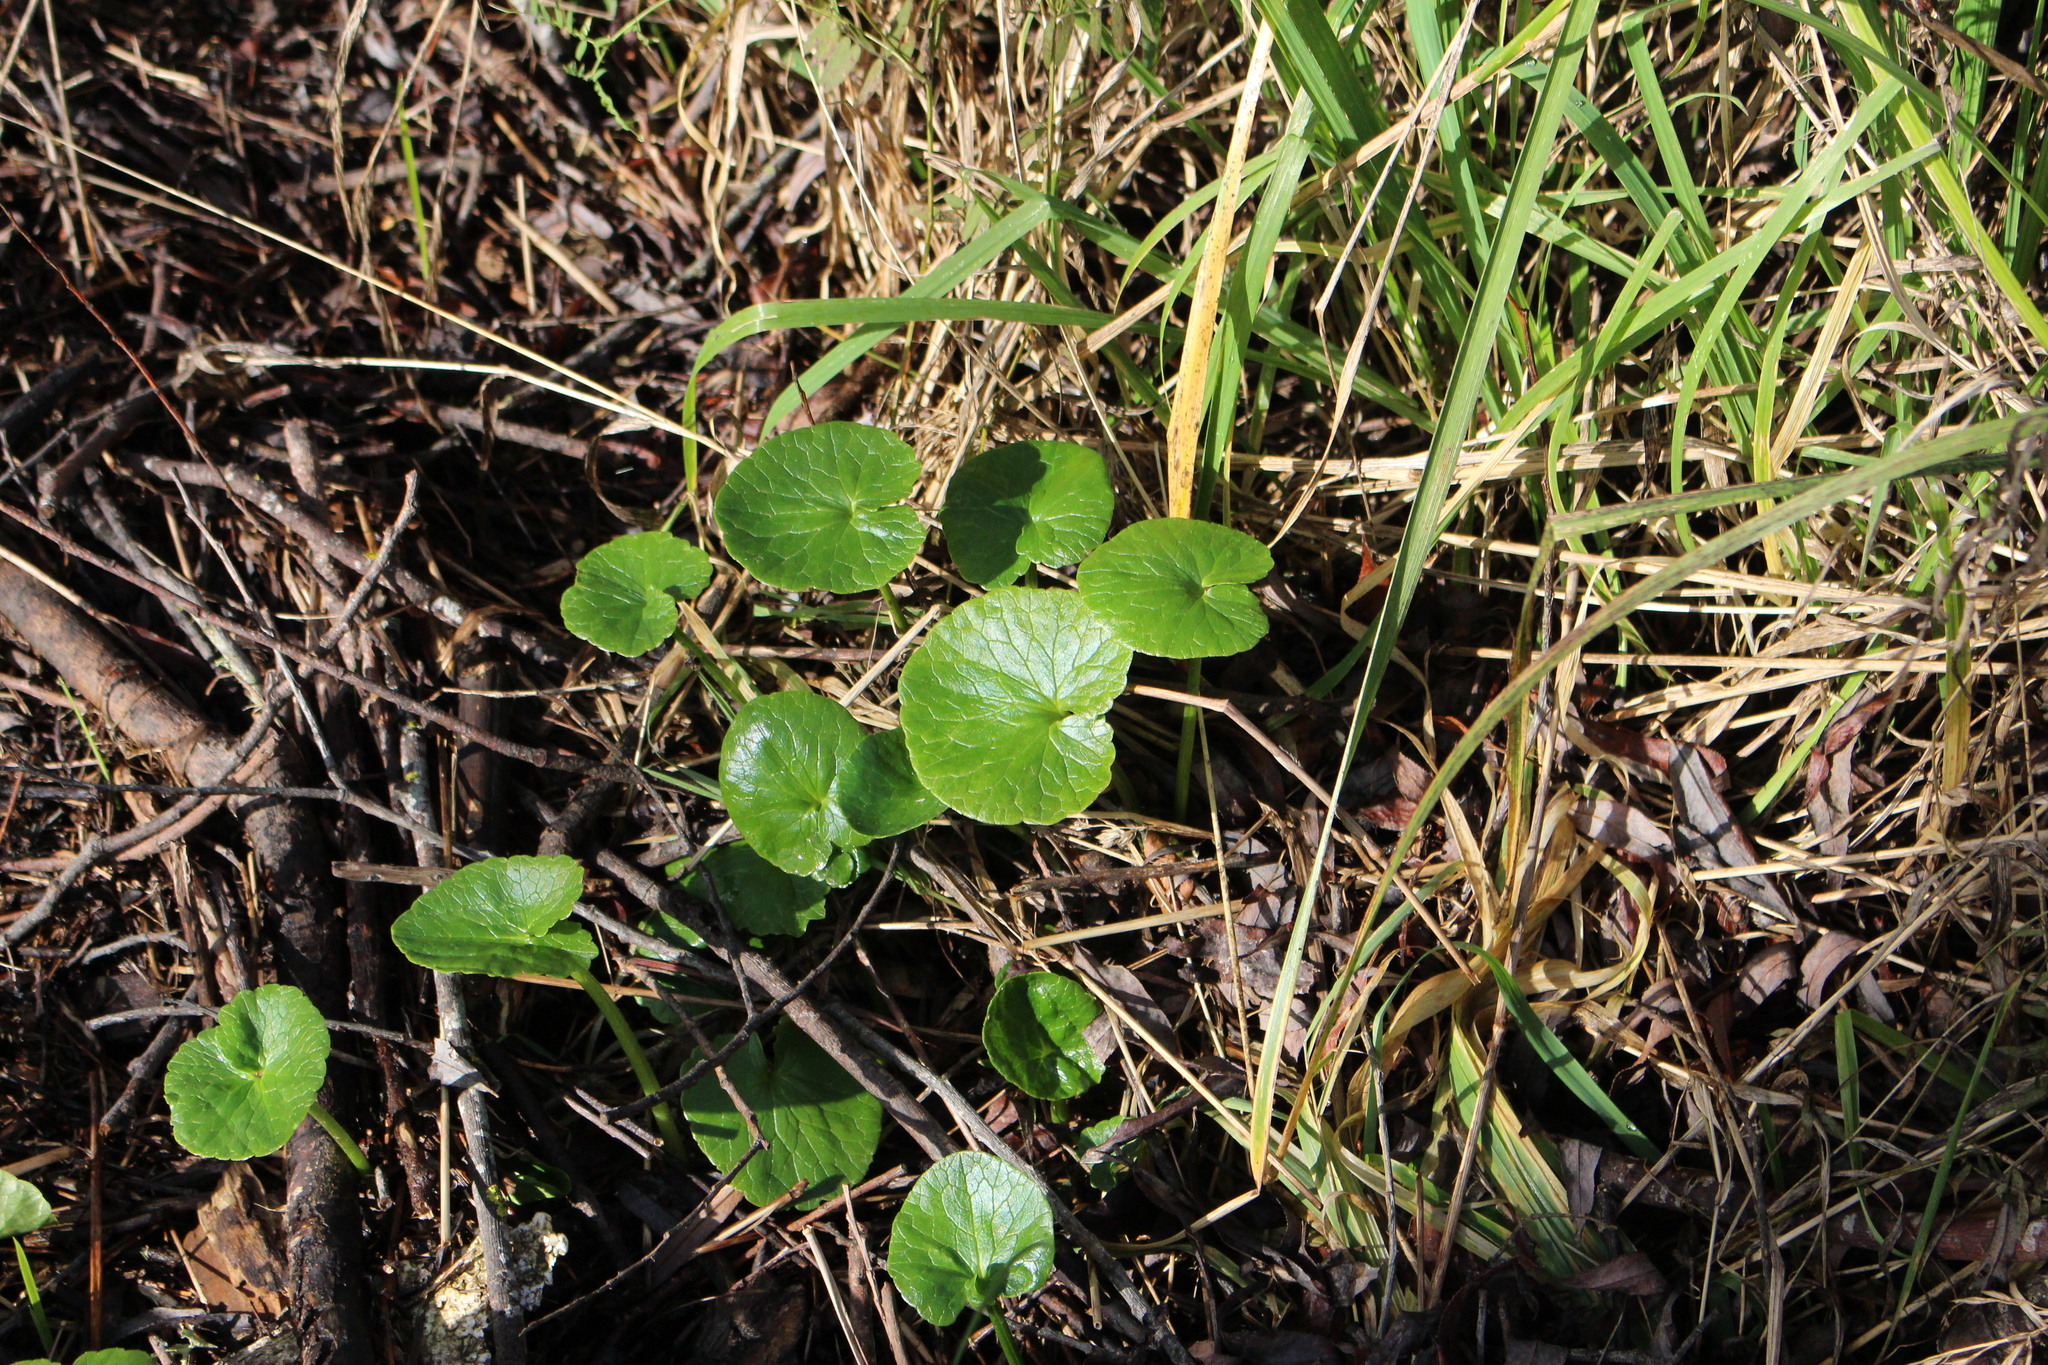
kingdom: Plantae
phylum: Tracheophyta
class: Magnoliopsida
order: Ranunculales
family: Ranunculaceae
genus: Ficaria
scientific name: Ficaria verna
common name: Lesser celandine
